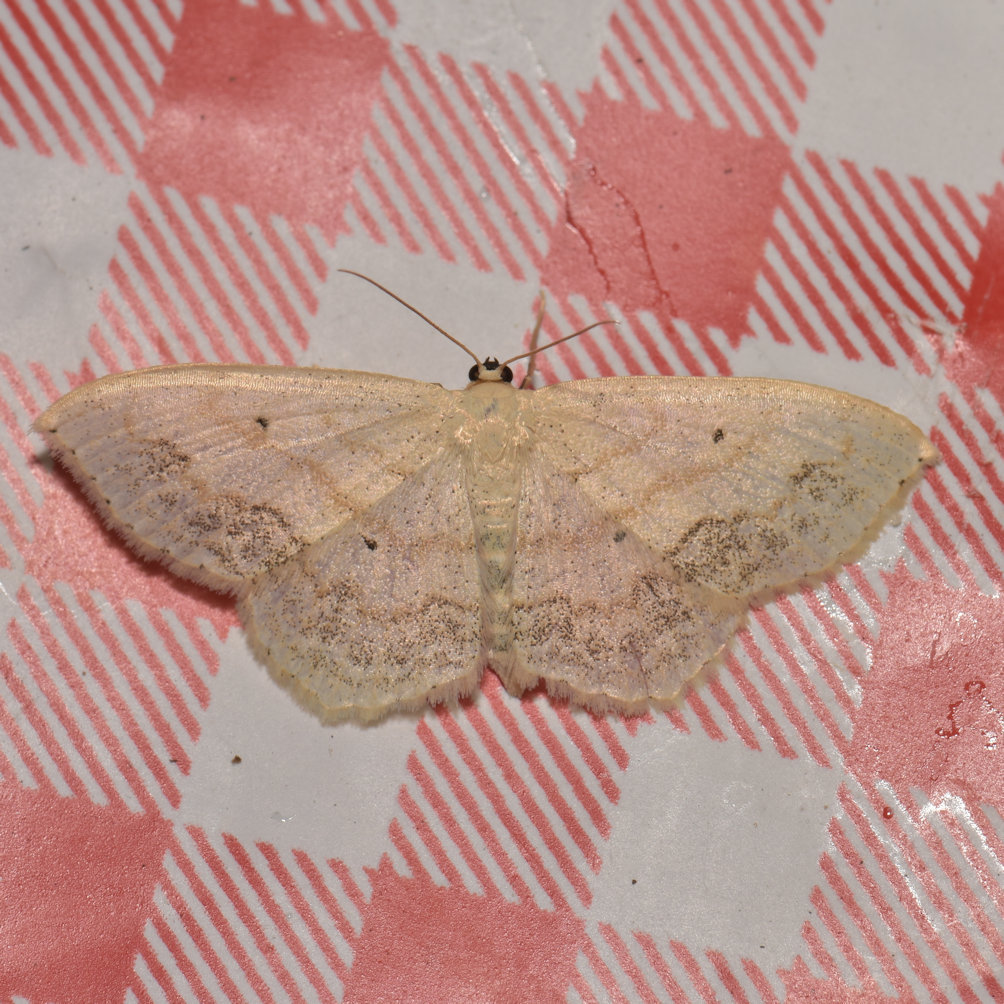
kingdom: Animalia
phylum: Arthropoda
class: Insecta
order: Lepidoptera
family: Geometridae
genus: Scopula
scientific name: Scopula limboundata
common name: Large lace border
